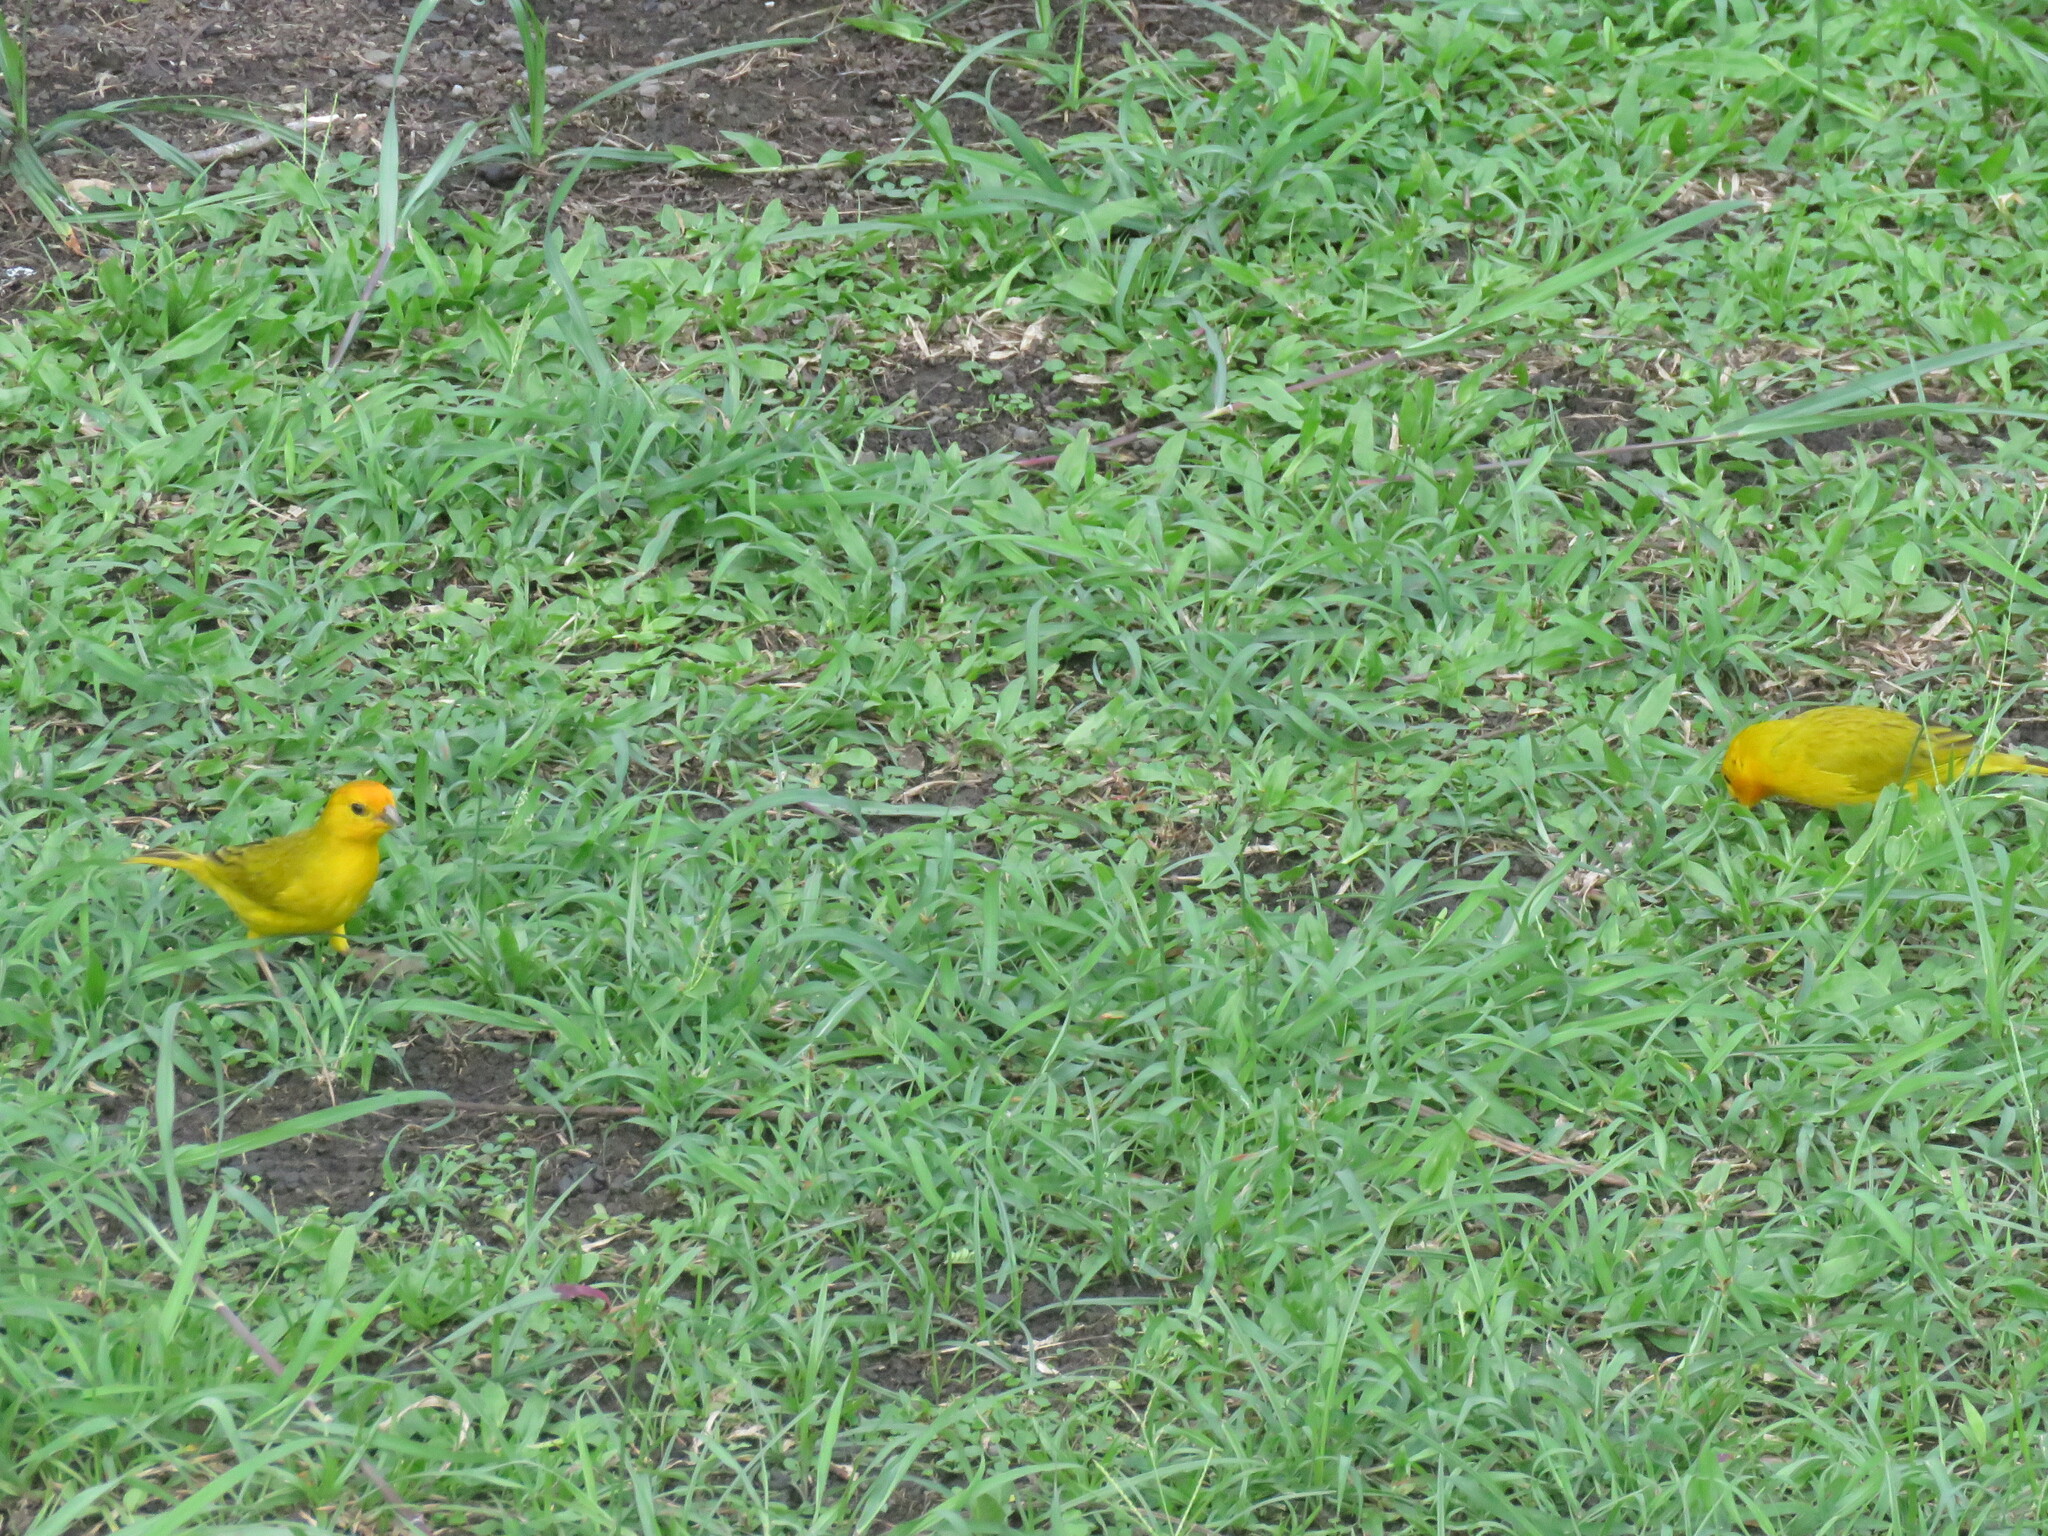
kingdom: Animalia
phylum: Chordata
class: Aves
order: Passeriformes
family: Thraupidae
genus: Sicalis
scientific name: Sicalis flaveola
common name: Saffron finch
